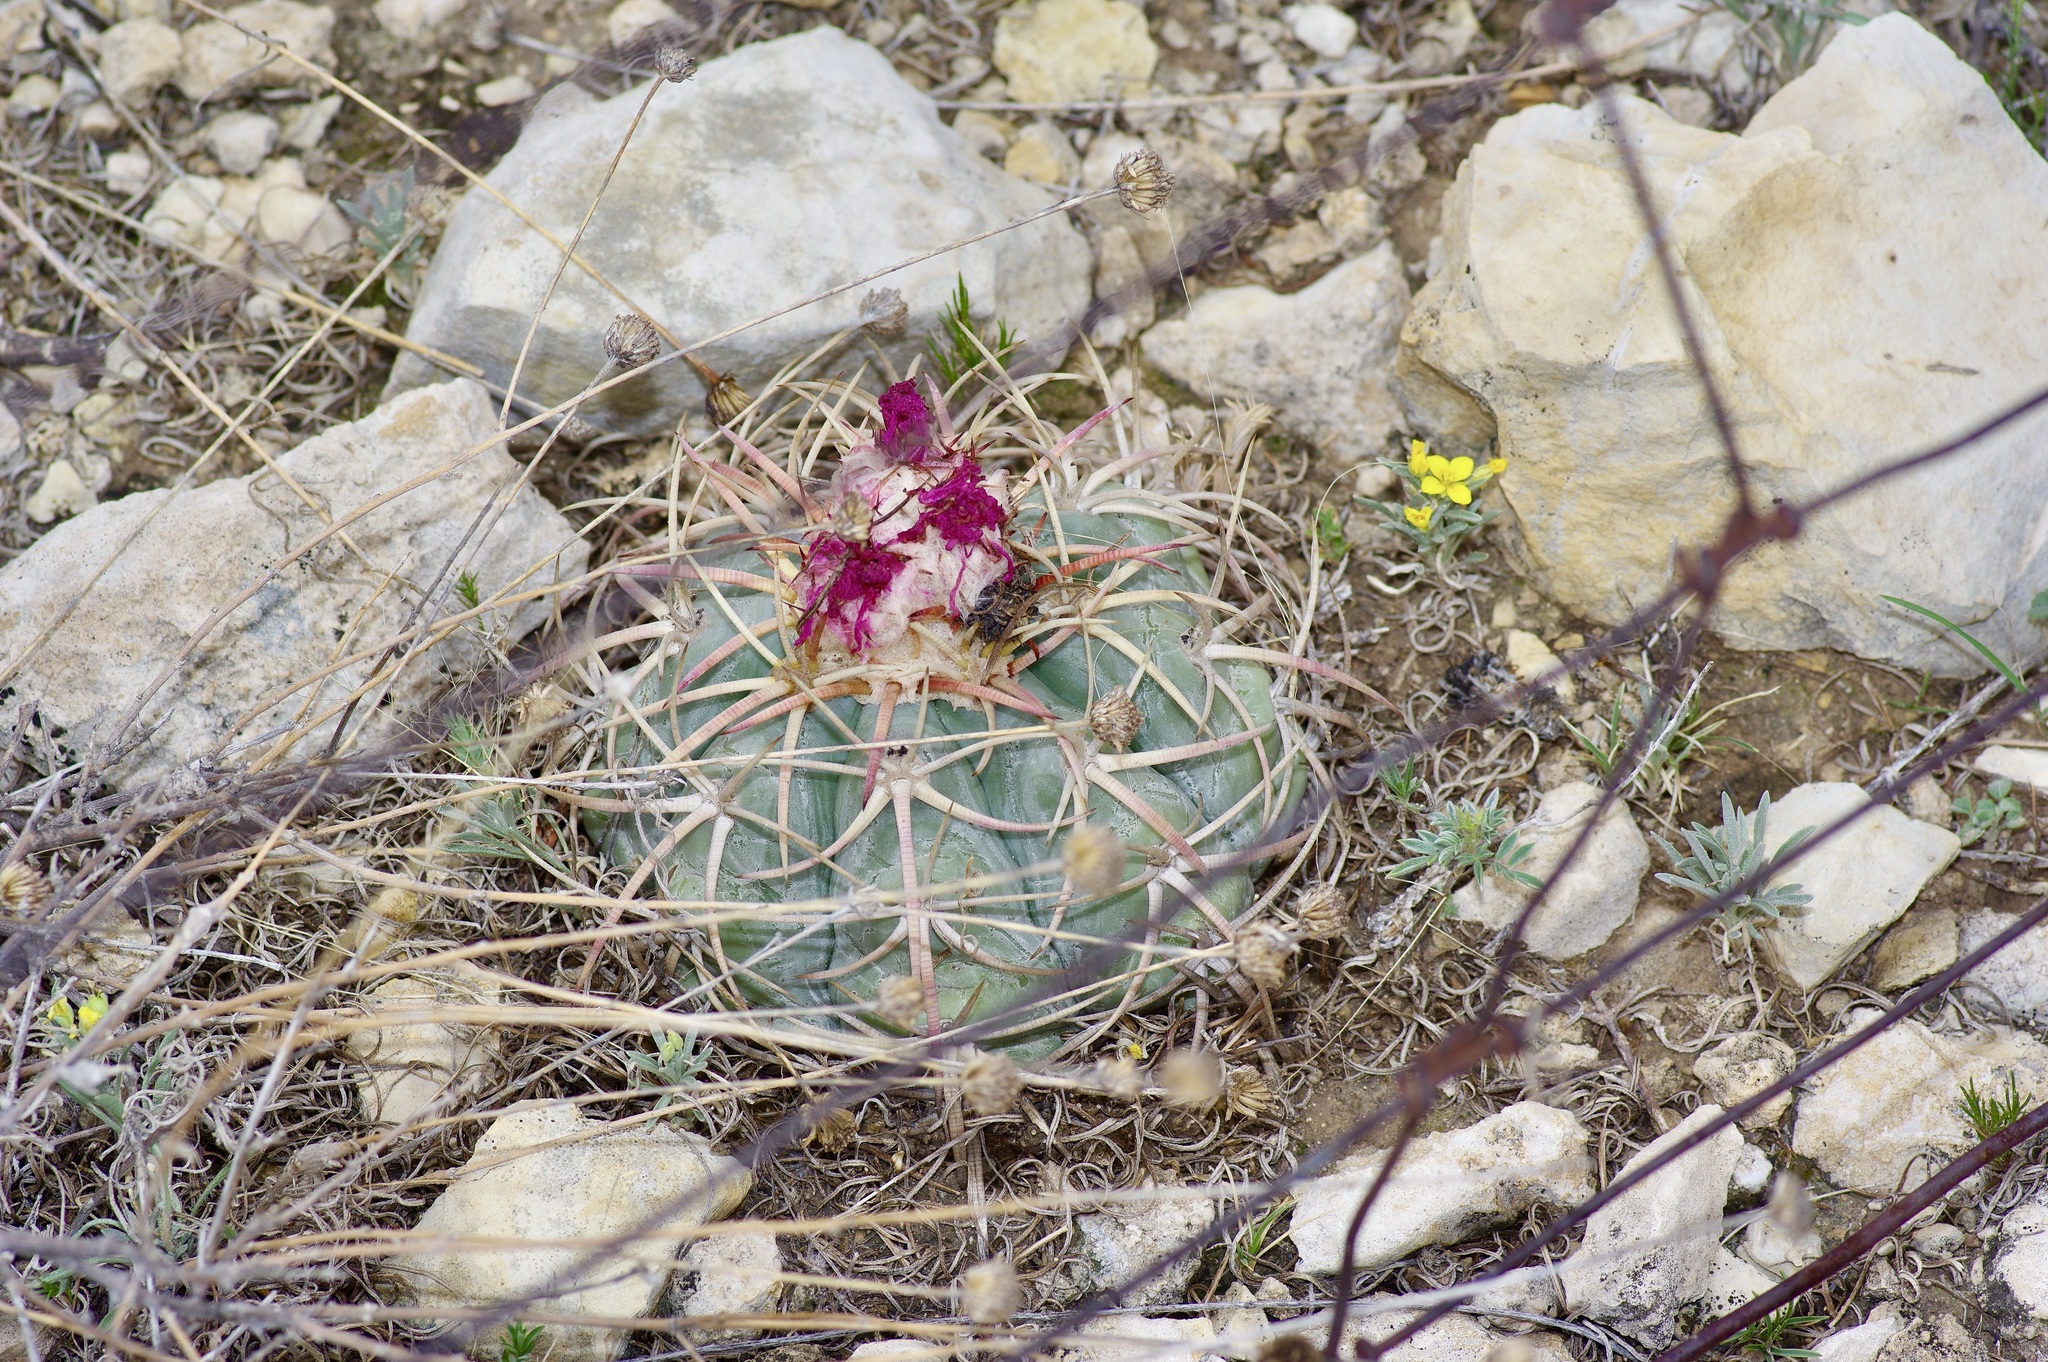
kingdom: Plantae
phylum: Tracheophyta
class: Magnoliopsida
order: Caryophyllales
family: Cactaceae
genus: Echinocactus
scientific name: Echinocactus horizonthalonius
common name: Devilshead
